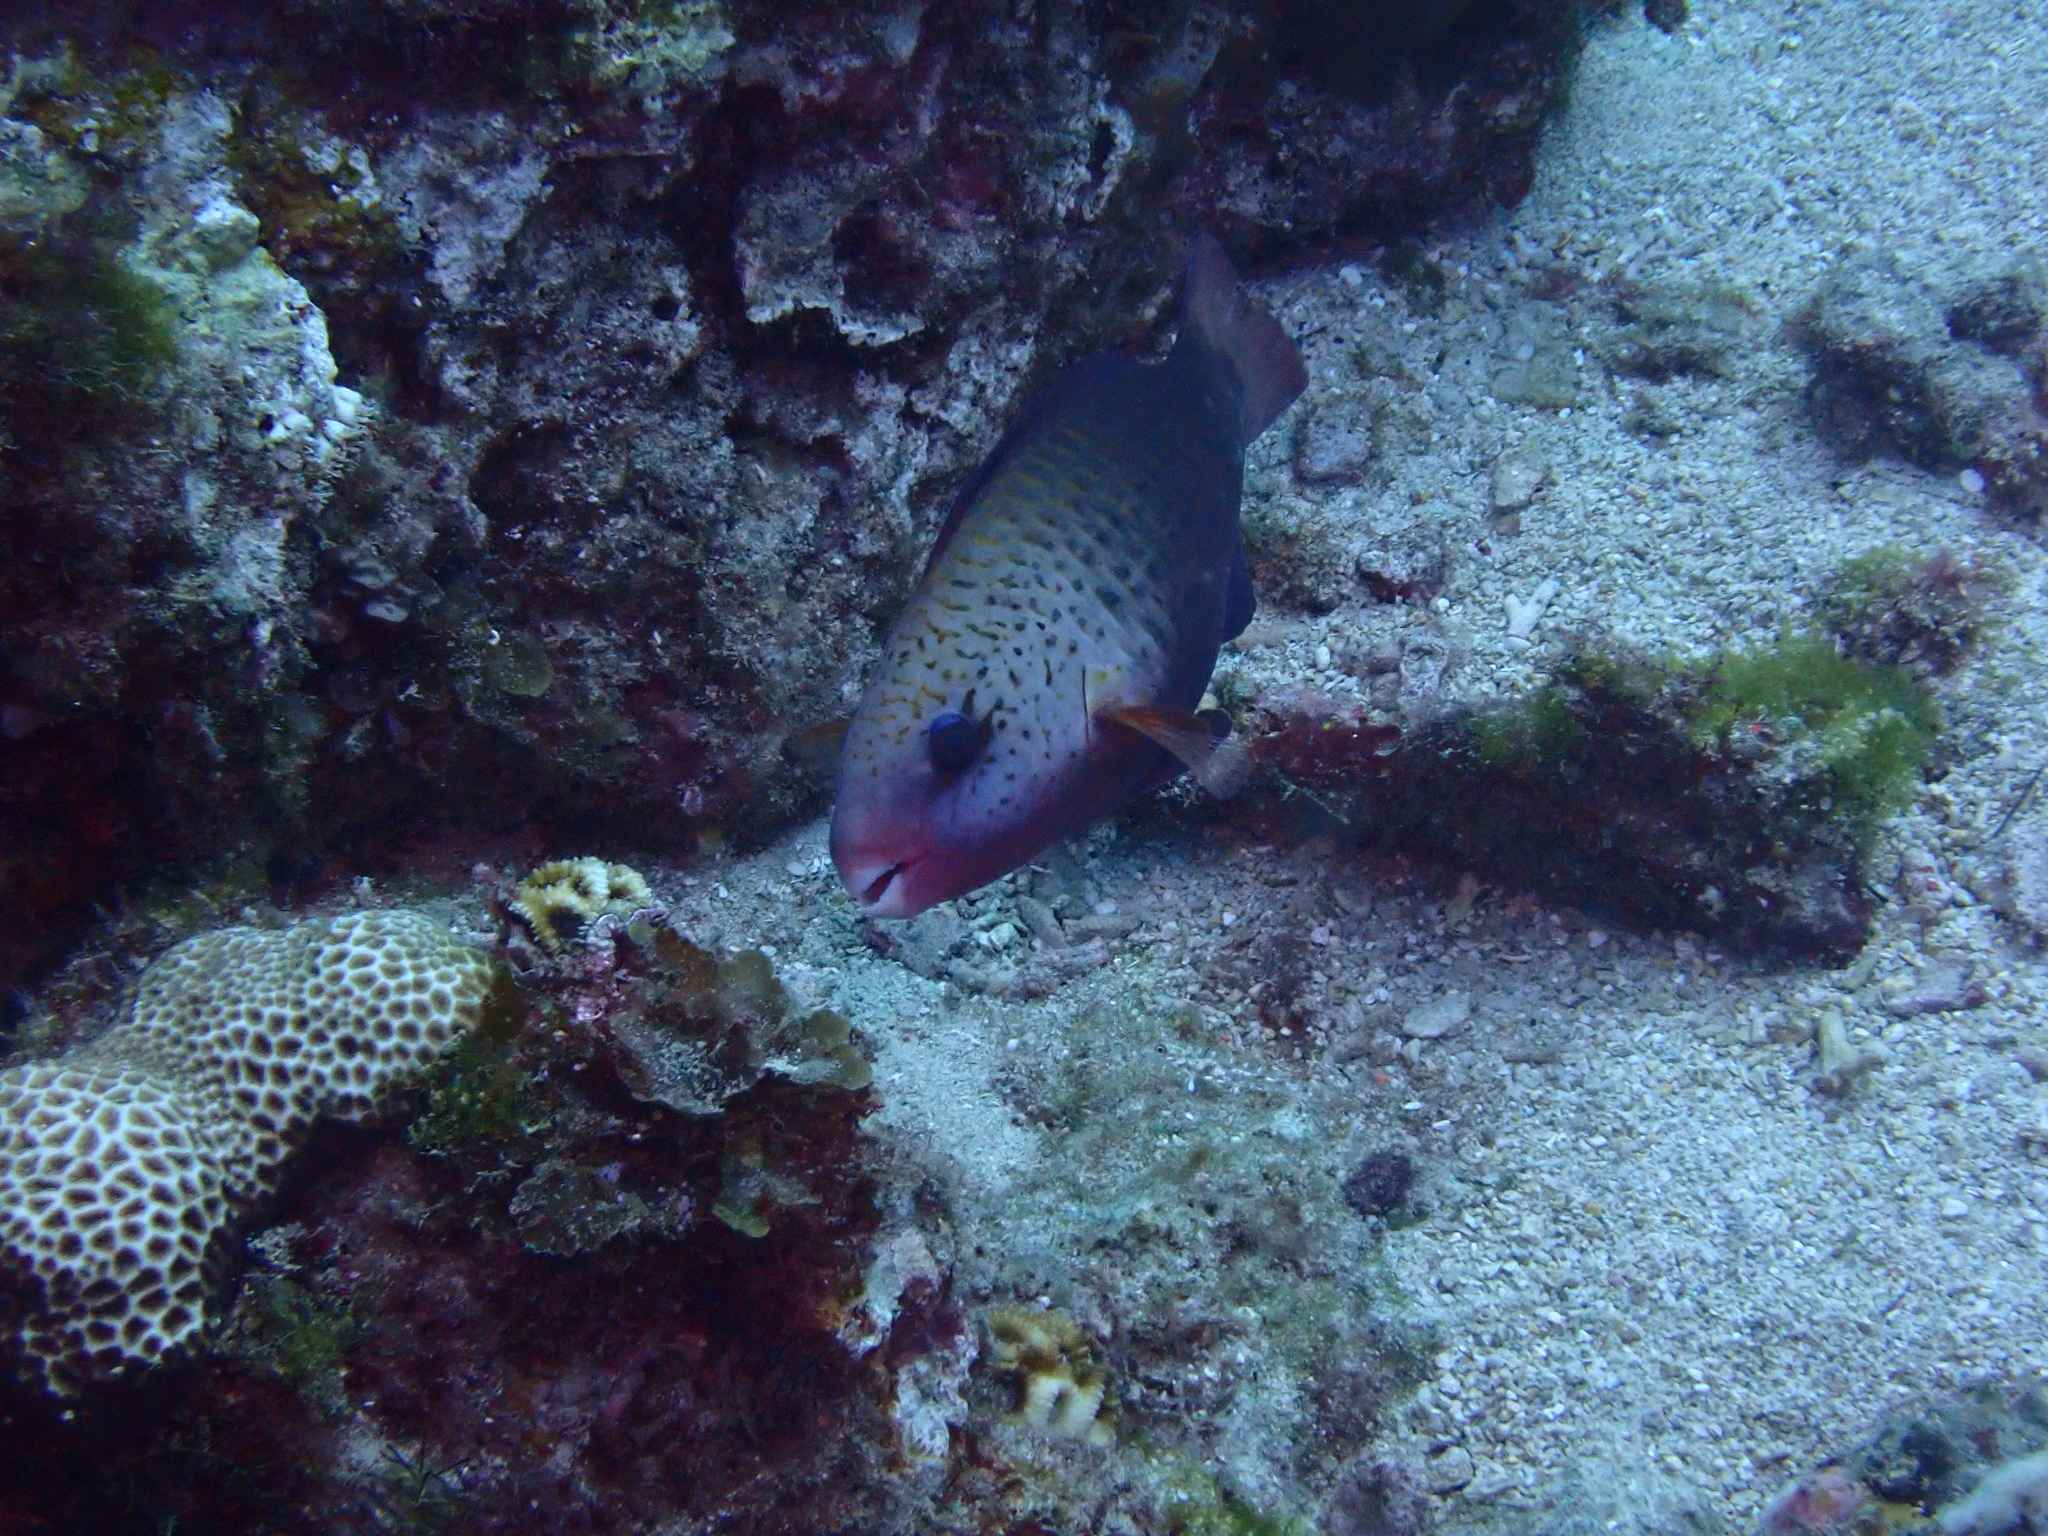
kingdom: Animalia
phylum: Chordata
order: Perciformes
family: Scaridae
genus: Chlorurus
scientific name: Chlorurus spilurus
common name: Bullethead parrotfish
